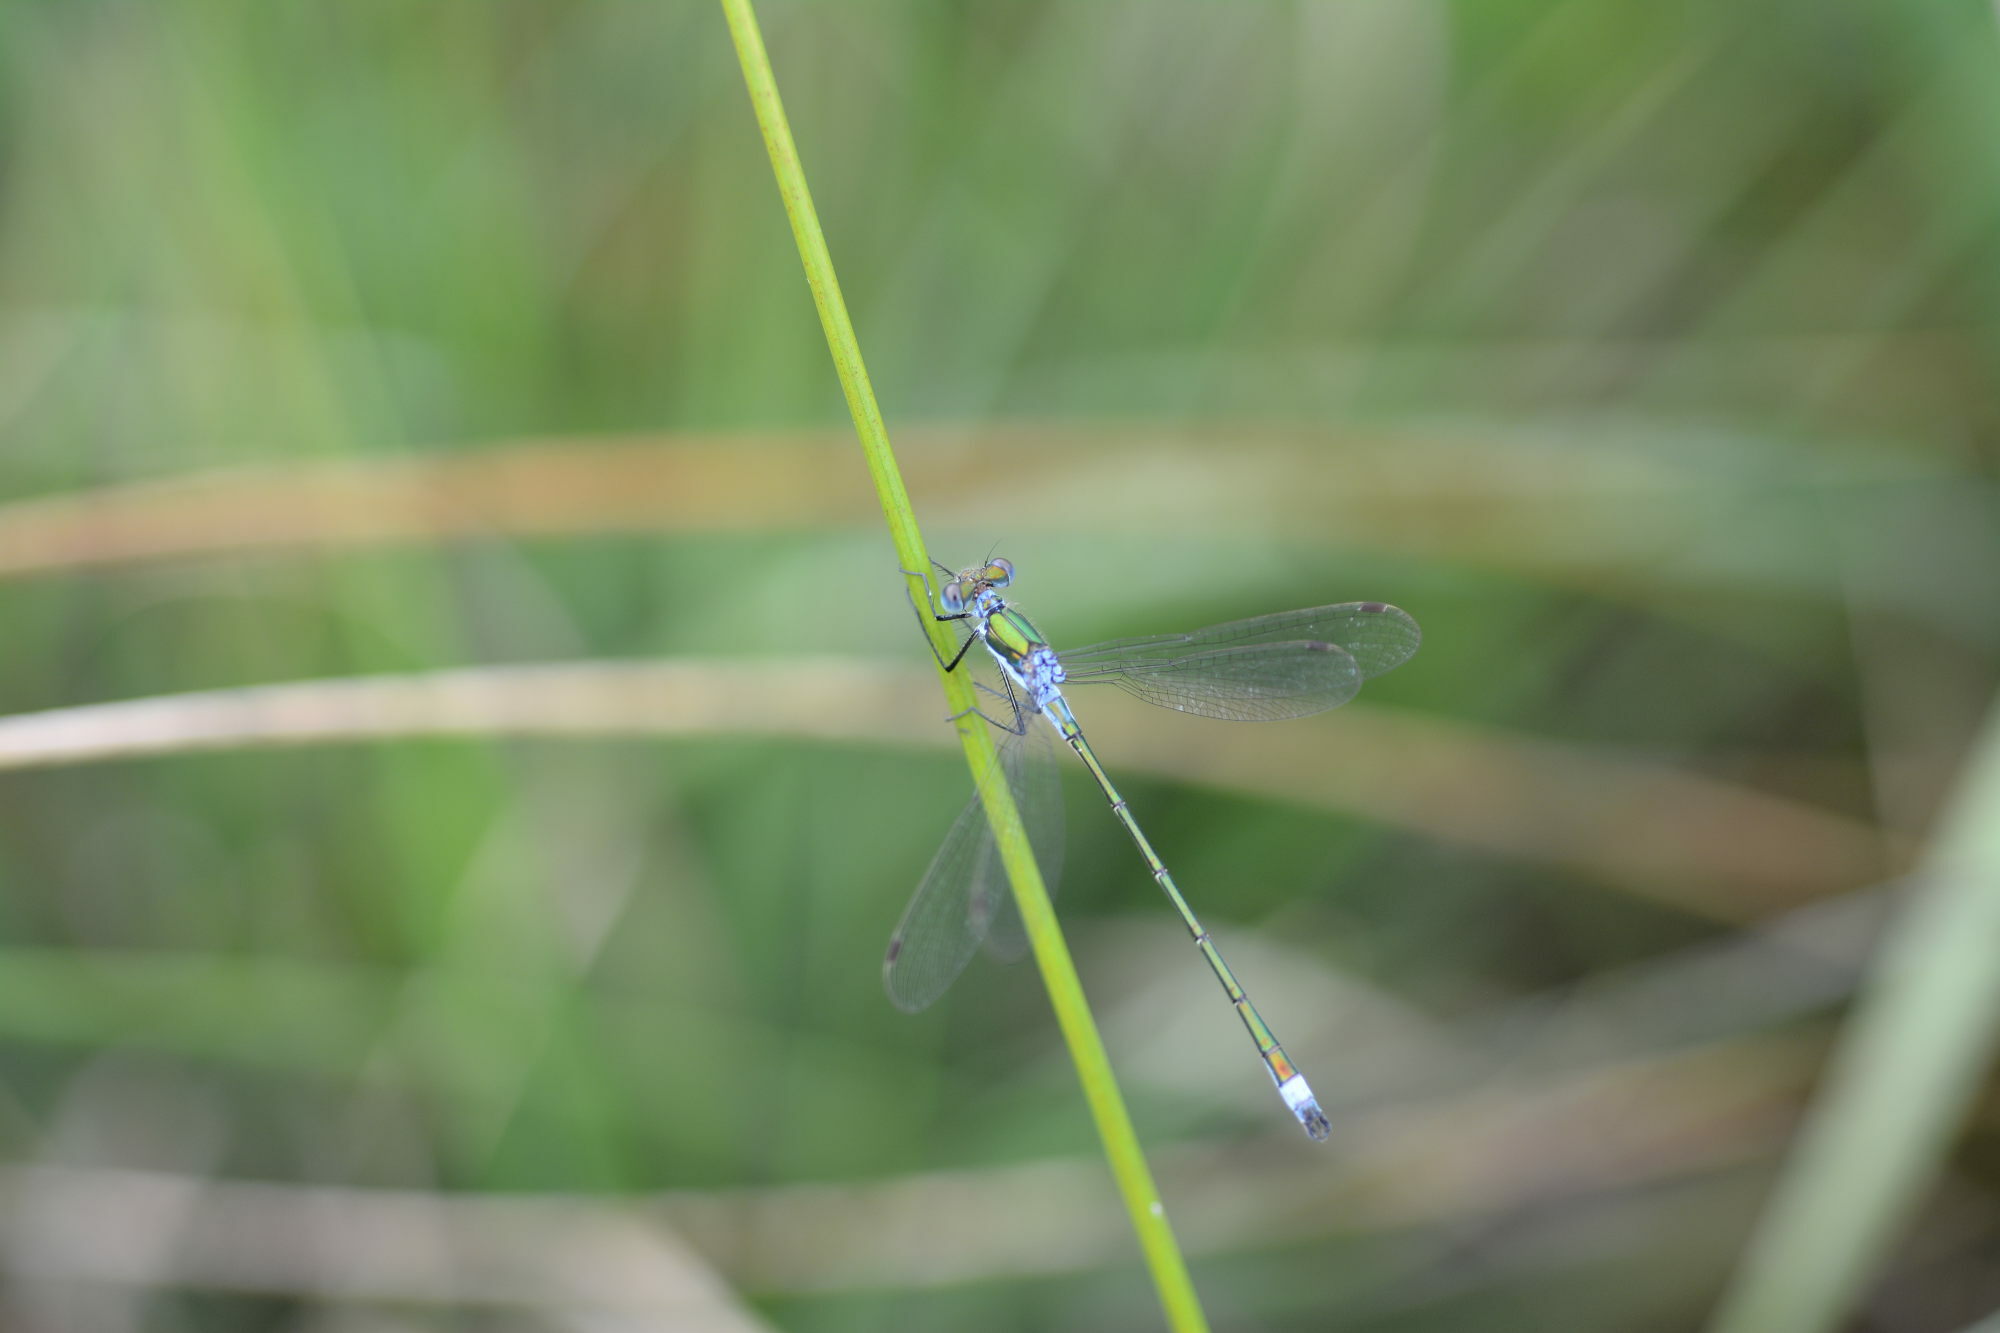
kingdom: Animalia
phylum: Arthropoda
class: Insecta
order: Odonata
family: Lestidae
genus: Lestes
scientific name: Lestes sponsa
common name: Common spreadwing
